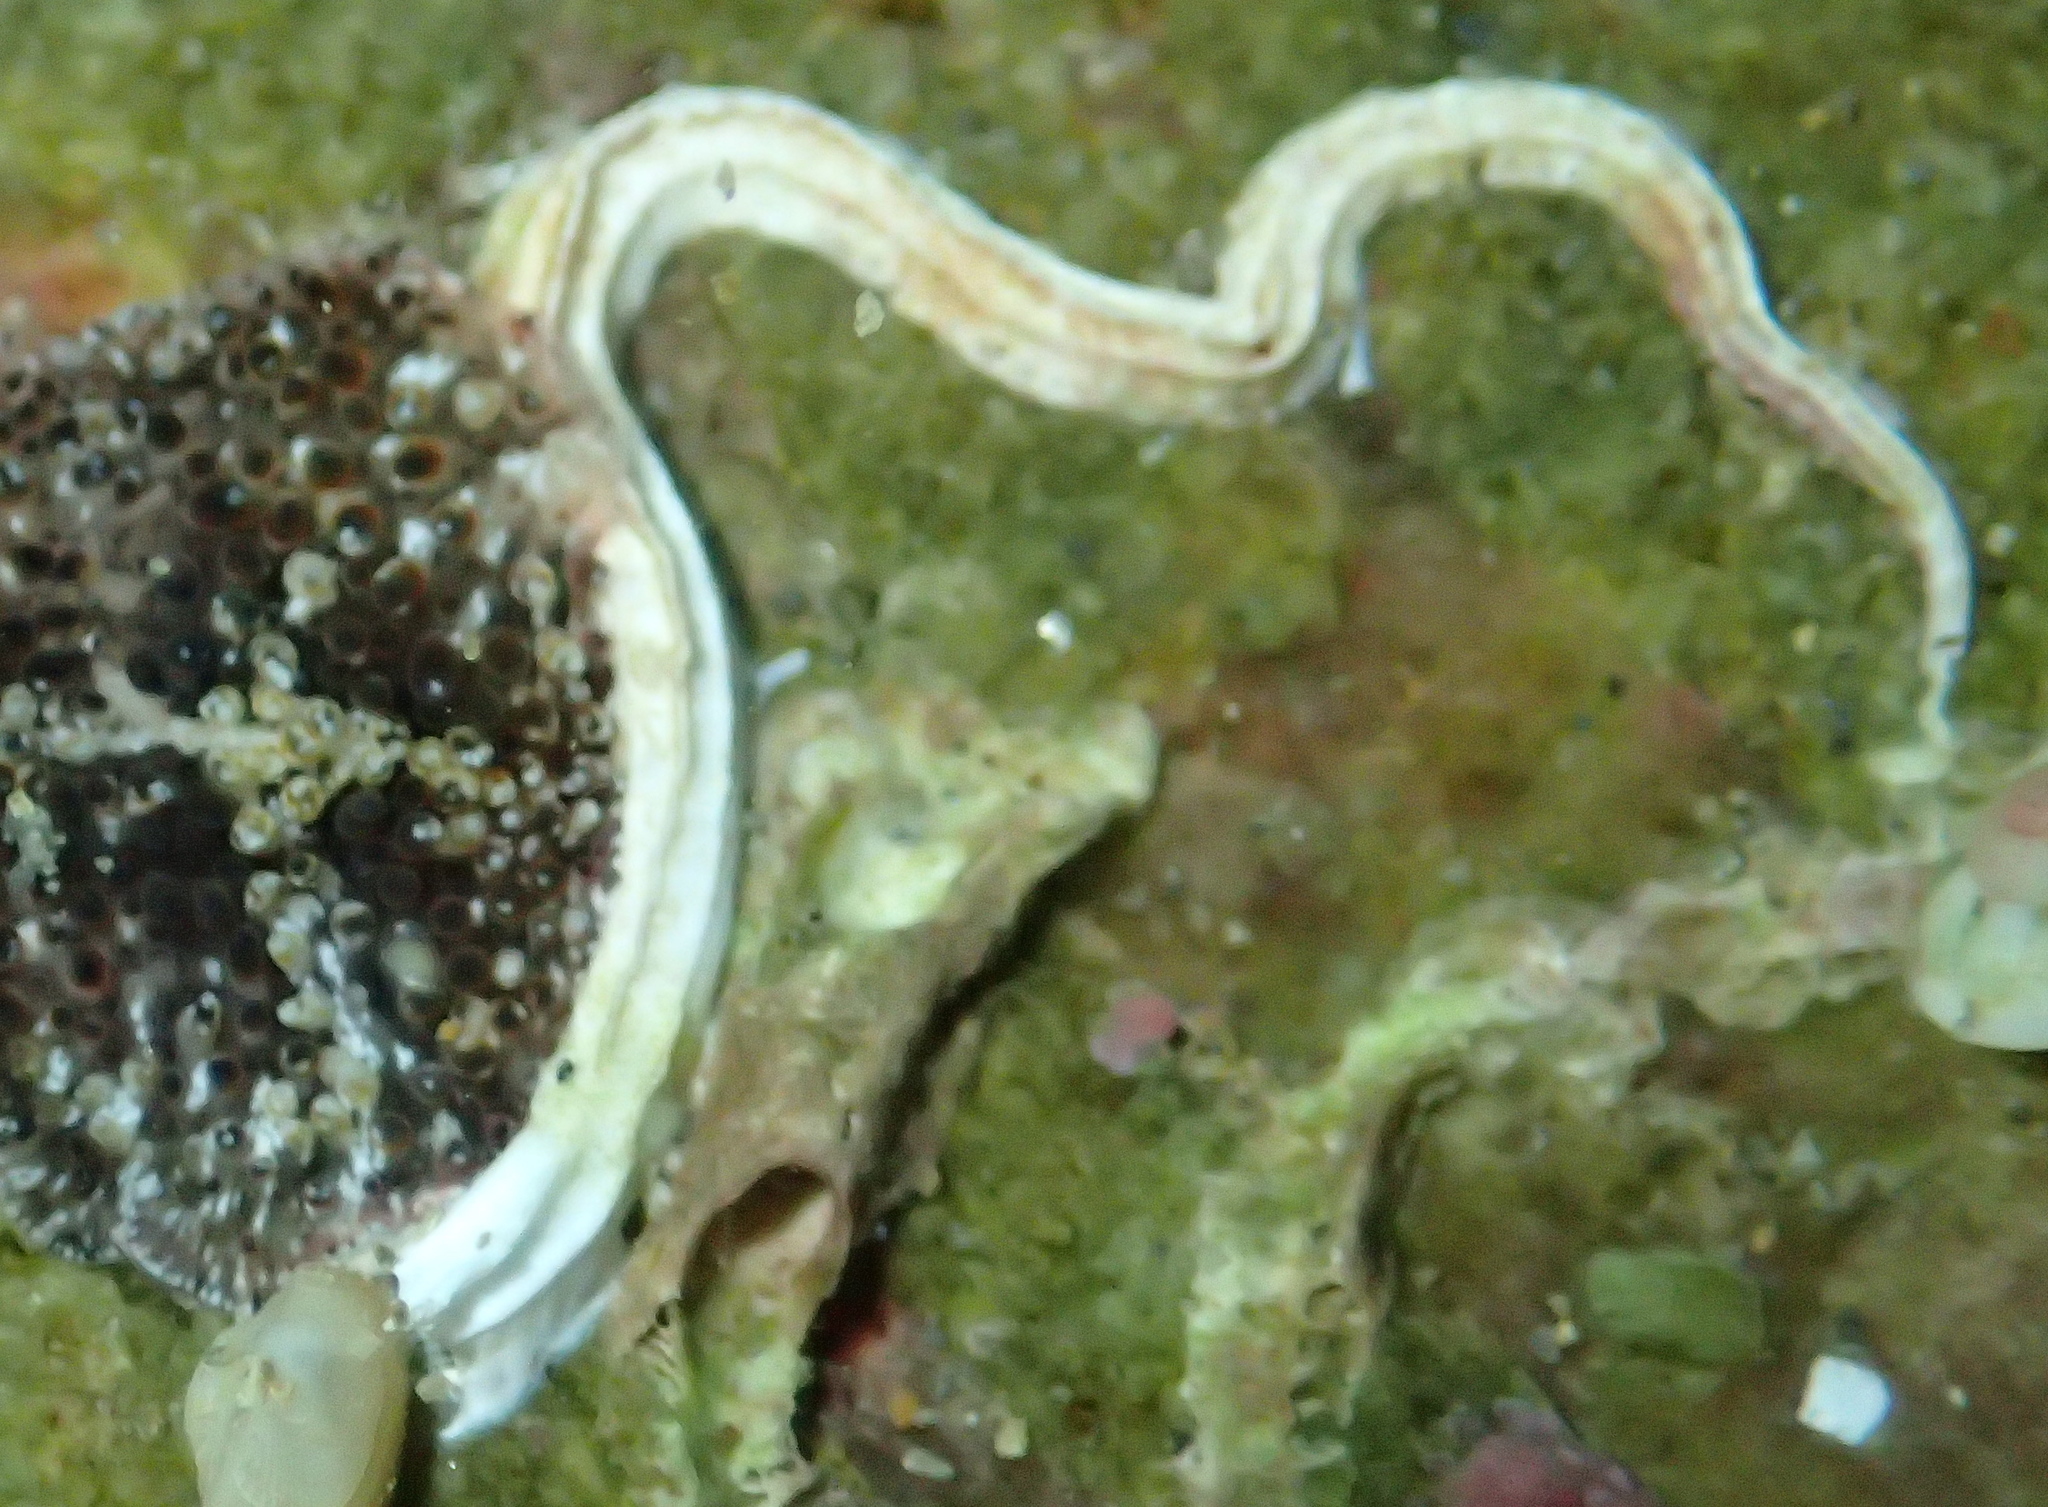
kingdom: Animalia
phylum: Annelida
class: Polychaeta
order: Sabellida
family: Serpulidae
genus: Spirobranchus
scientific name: Spirobranchus lamarcki
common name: Keelworm
